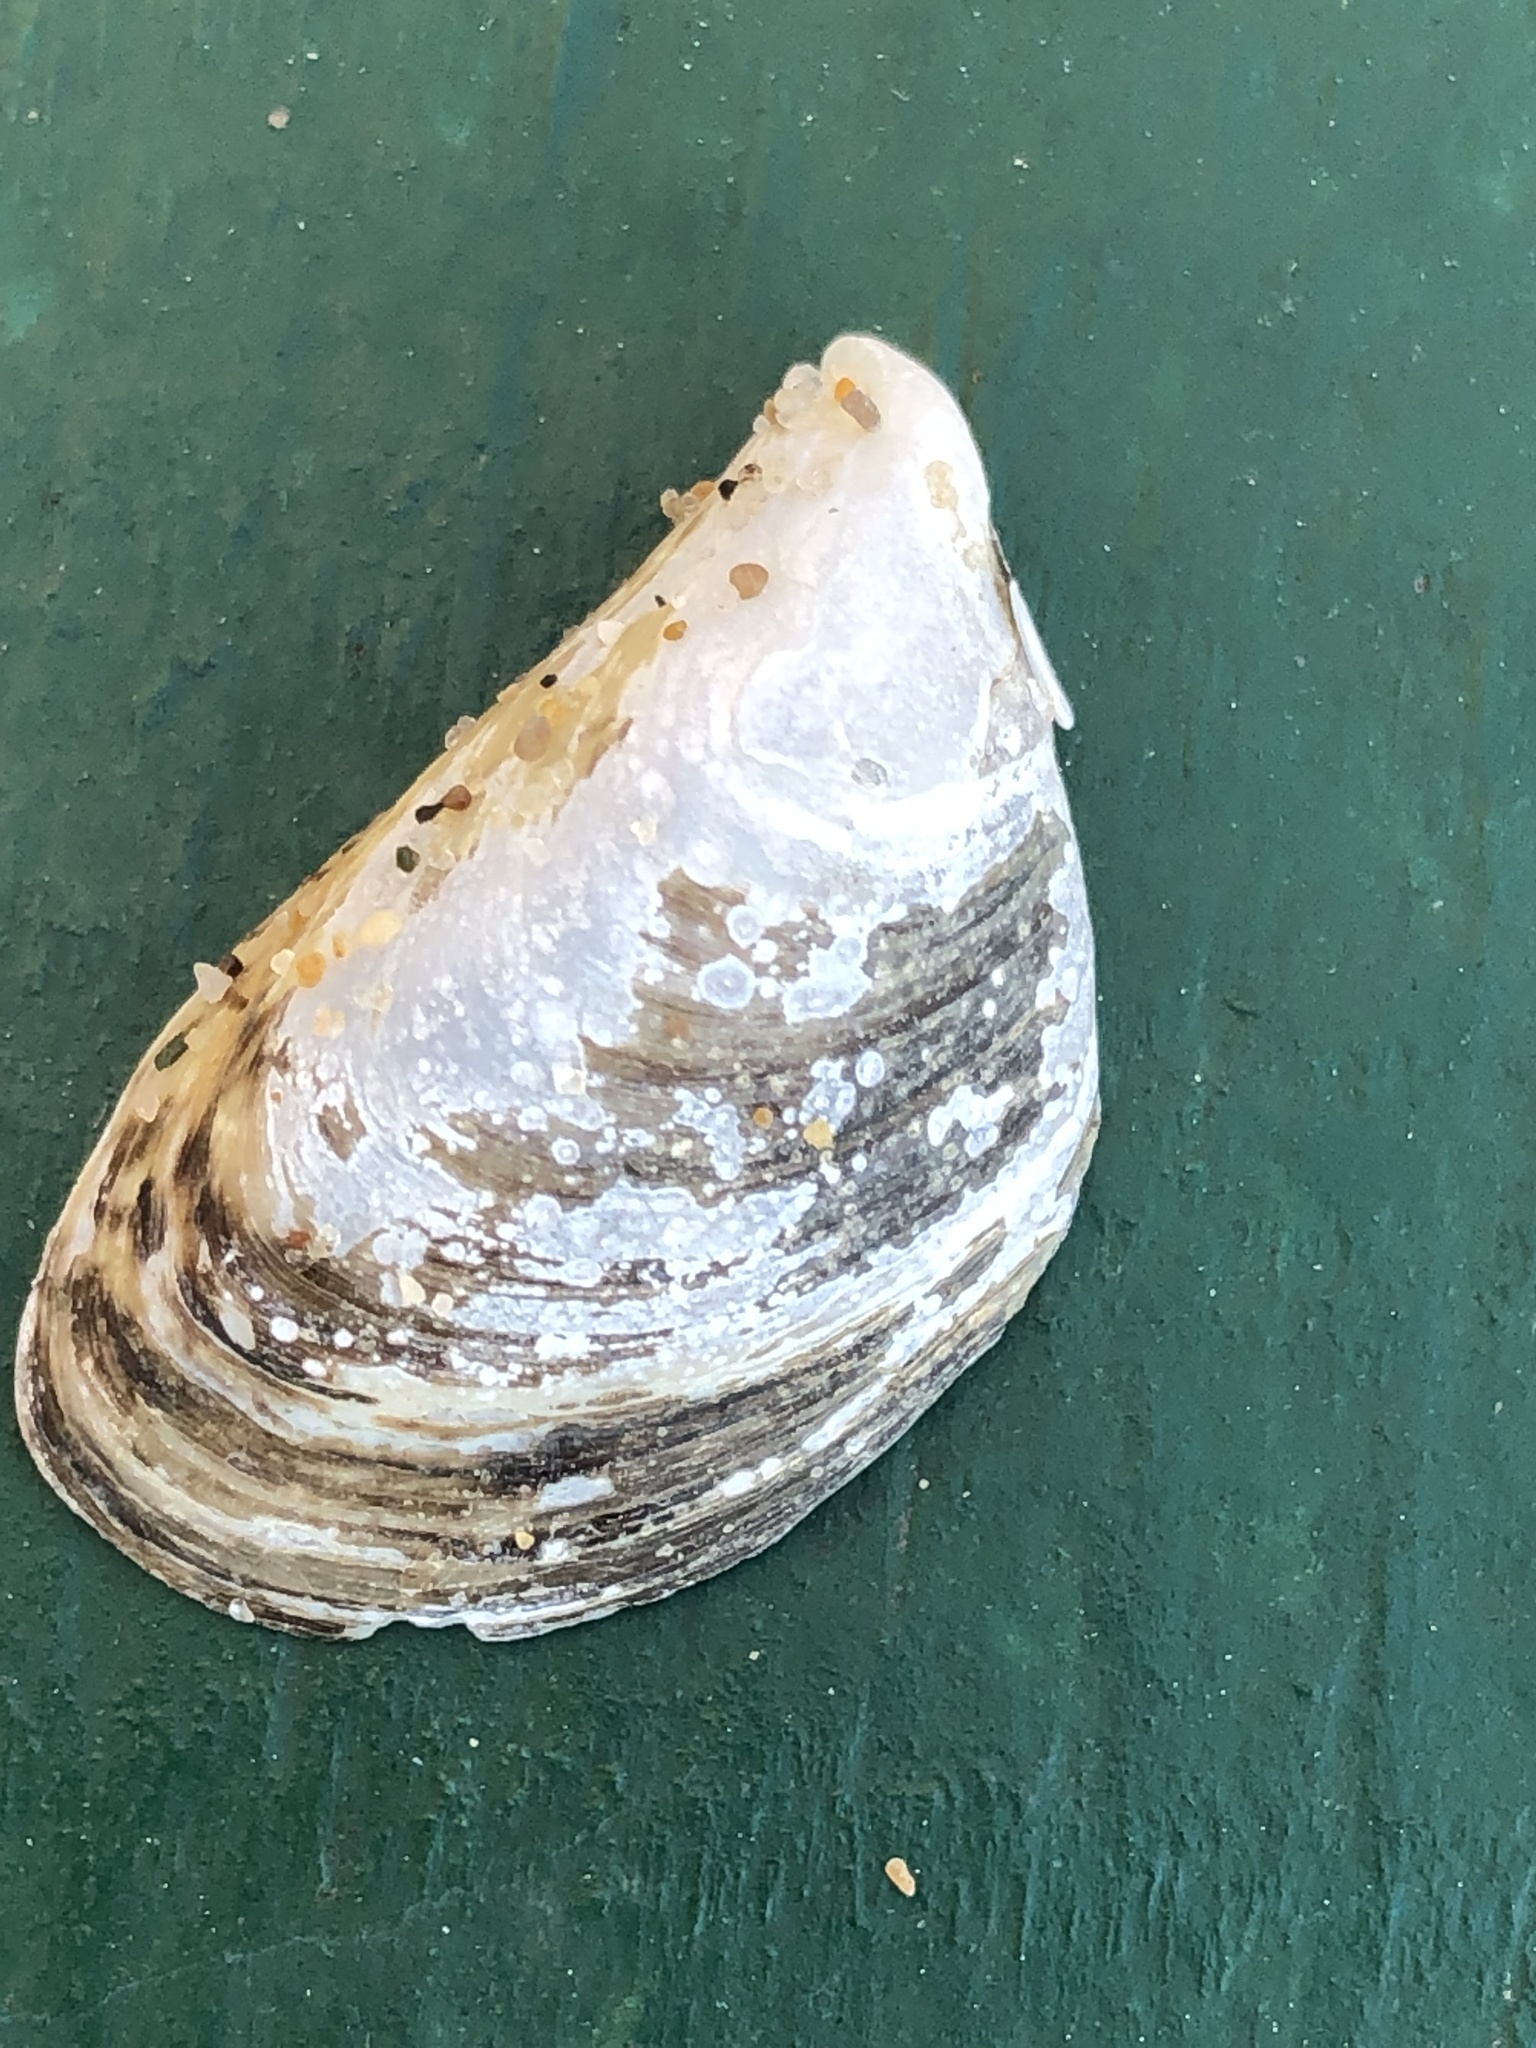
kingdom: Animalia
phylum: Mollusca
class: Bivalvia
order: Myida
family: Dreissenidae
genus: Dreissena
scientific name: Dreissena bugensis
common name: Quagga mussel
